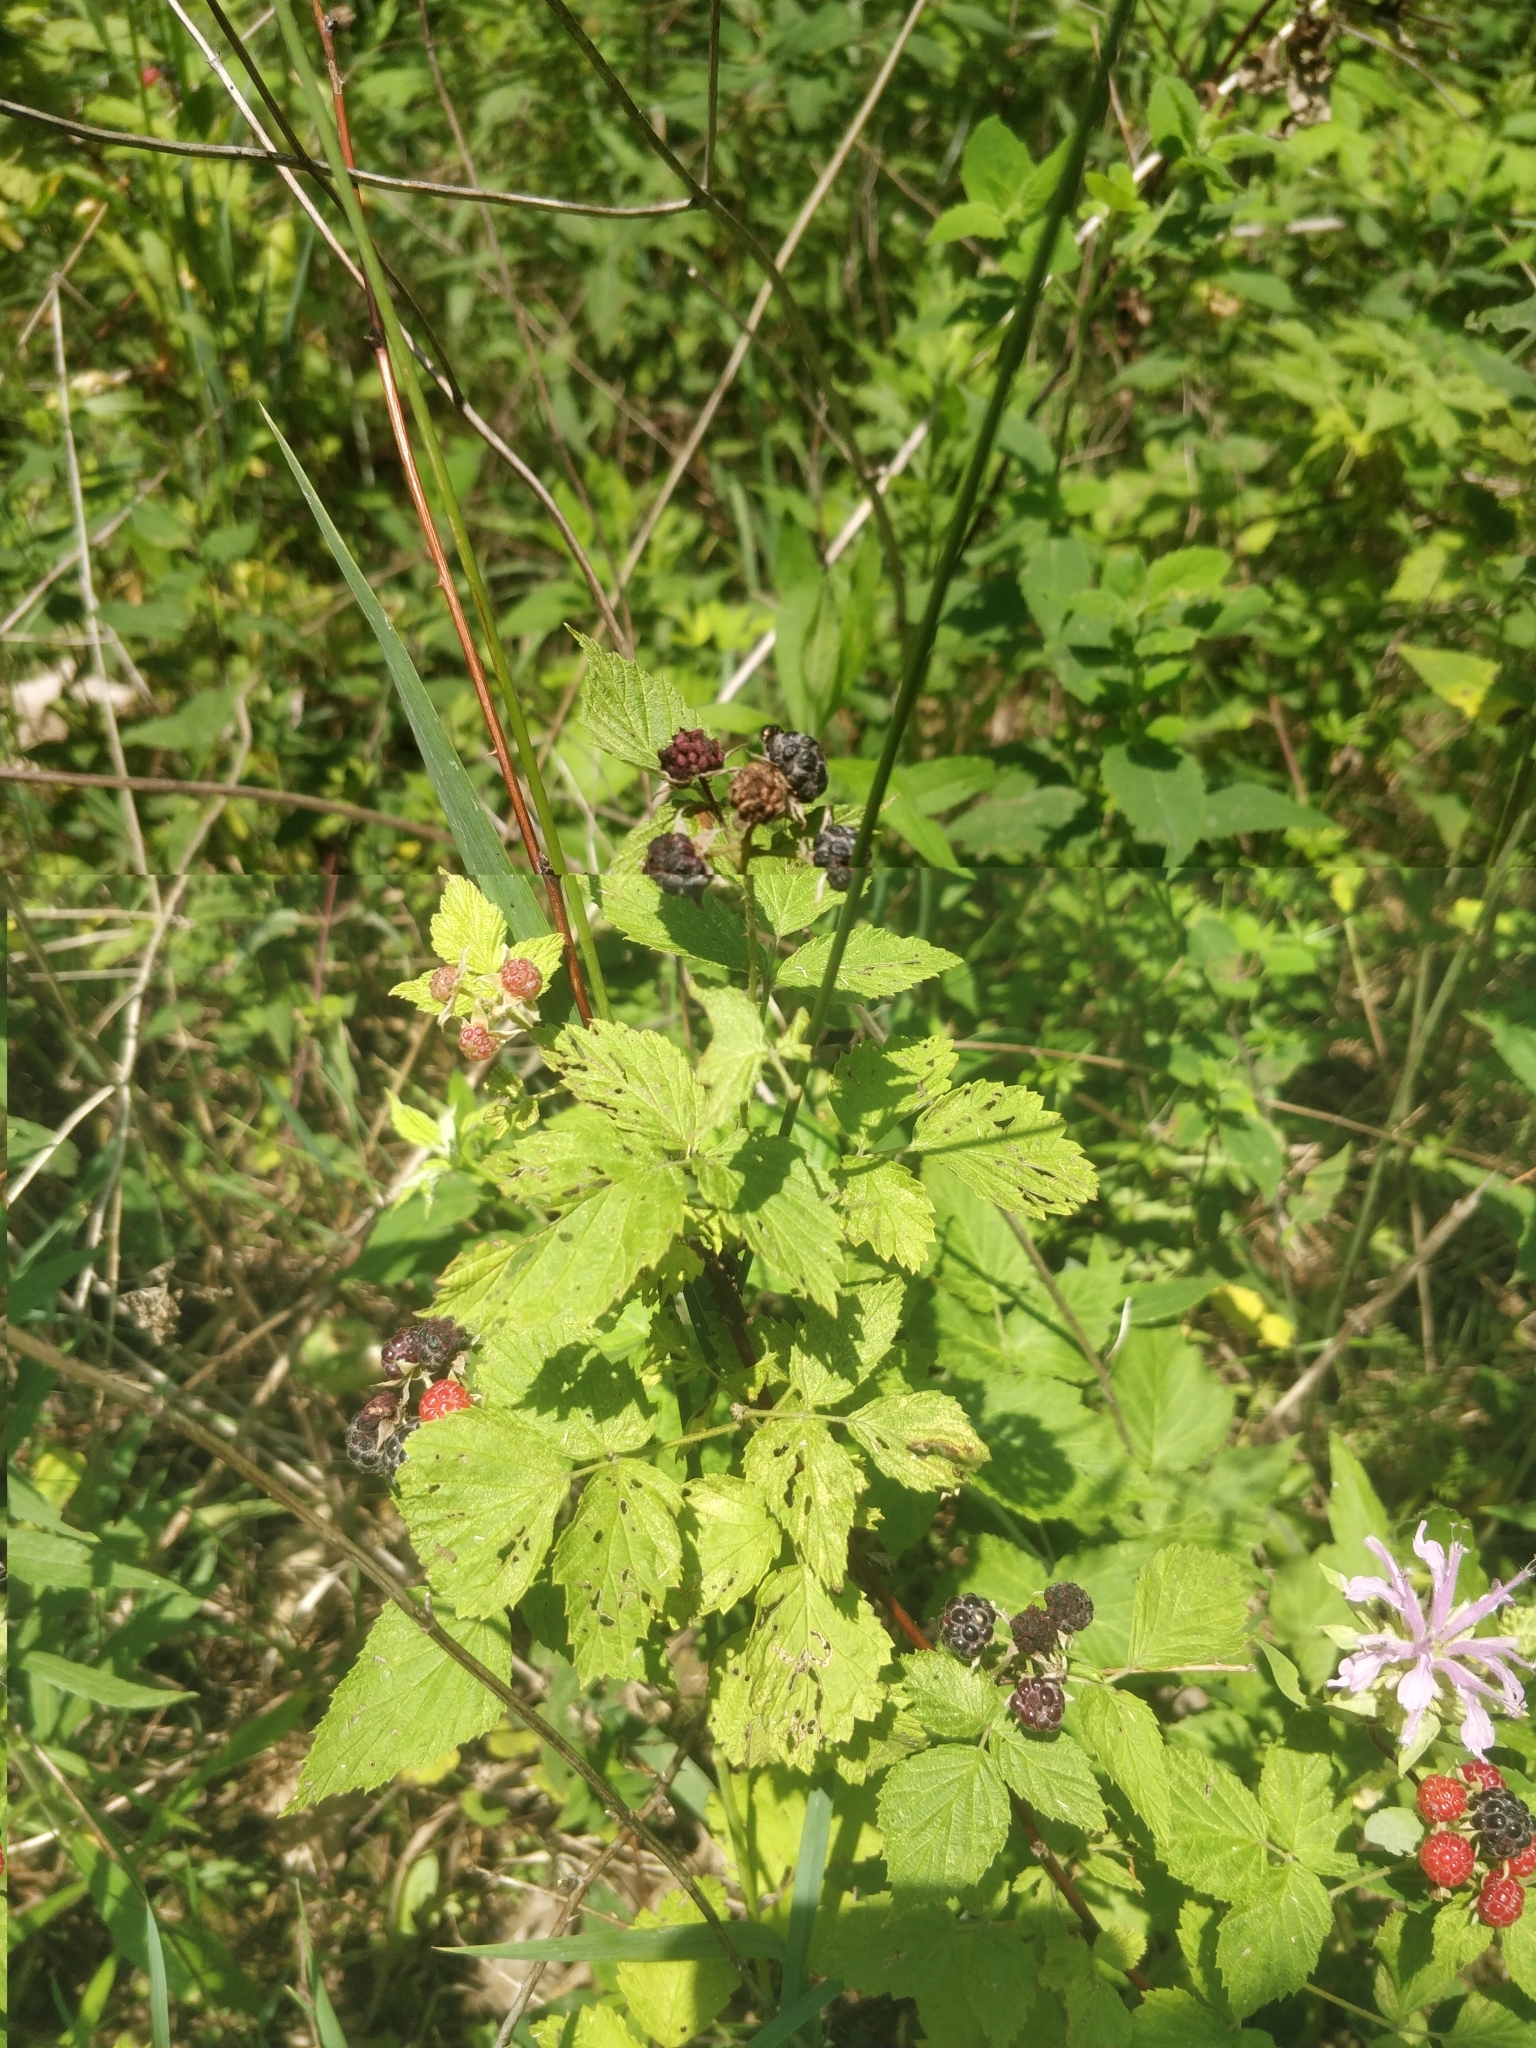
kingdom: Plantae
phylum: Tracheophyta
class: Magnoliopsida
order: Rosales
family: Rosaceae
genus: Rubus
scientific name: Rubus occidentalis
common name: Black raspberry
